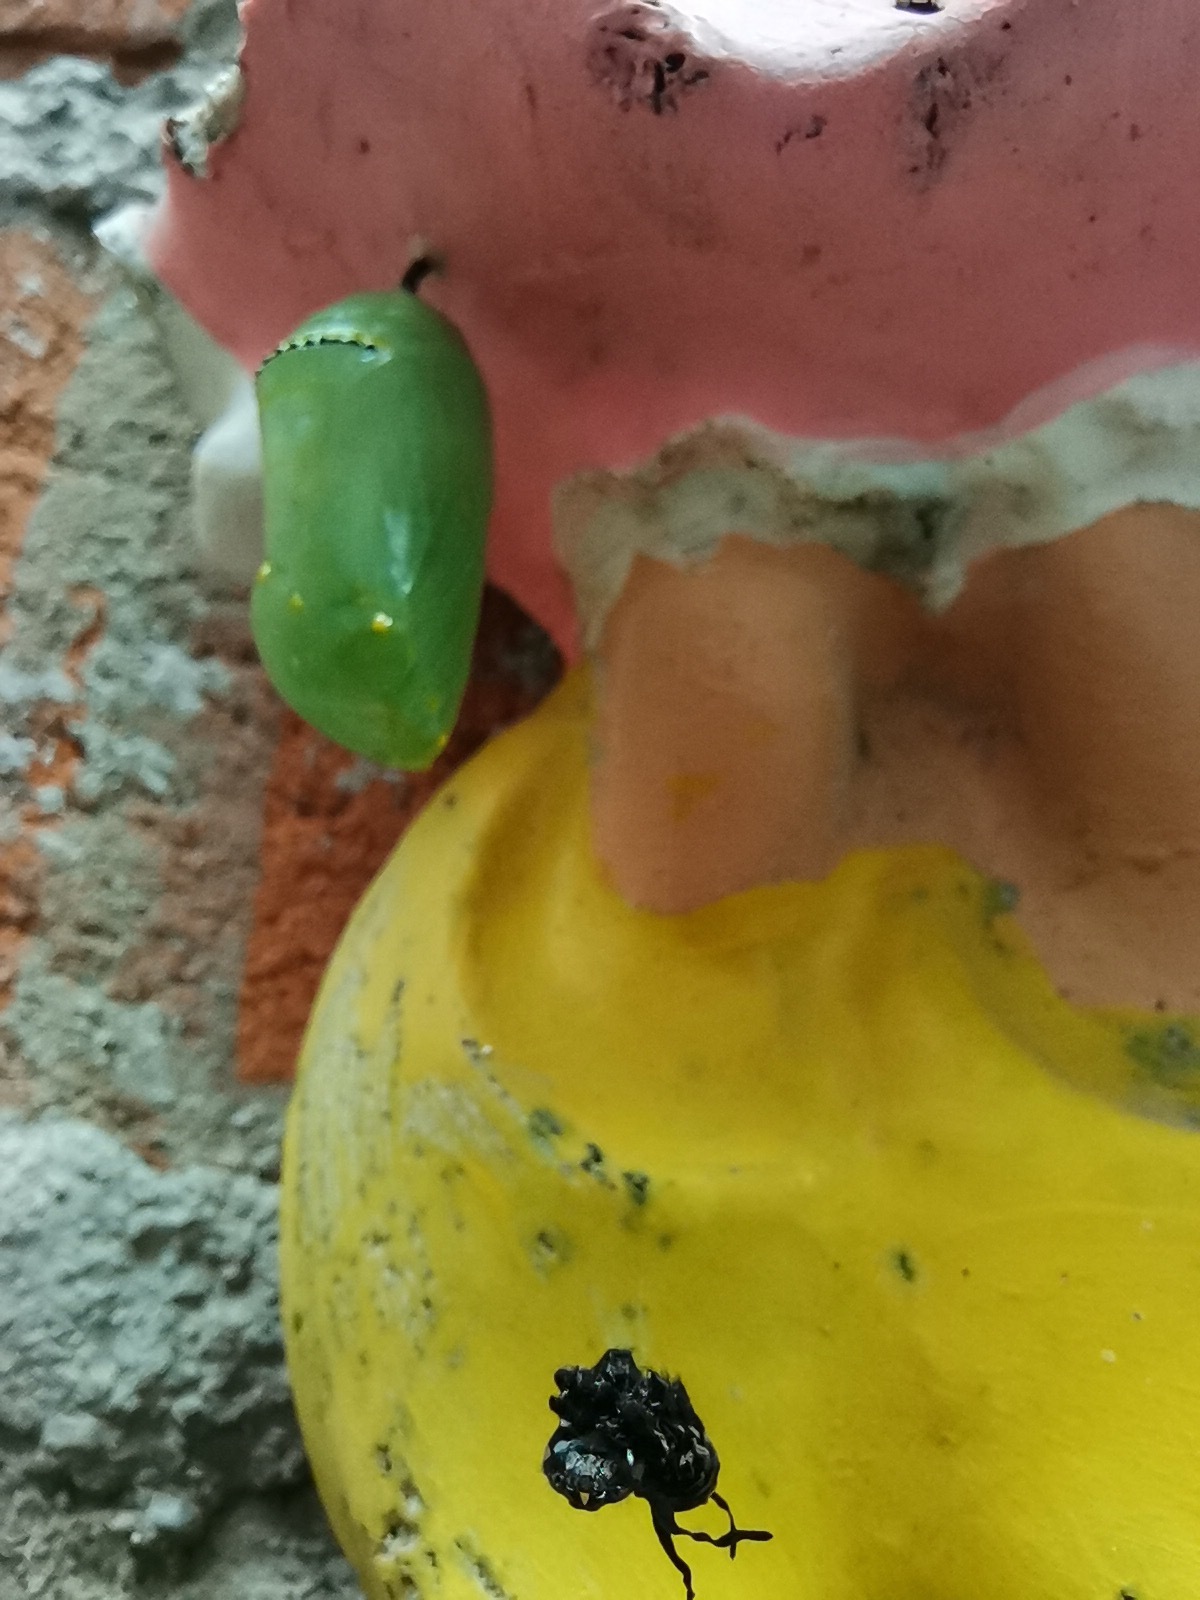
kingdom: Animalia
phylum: Arthropoda
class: Insecta
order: Lepidoptera
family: Nymphalidae
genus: Danaus
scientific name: Danaus plexippus
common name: Monarch
